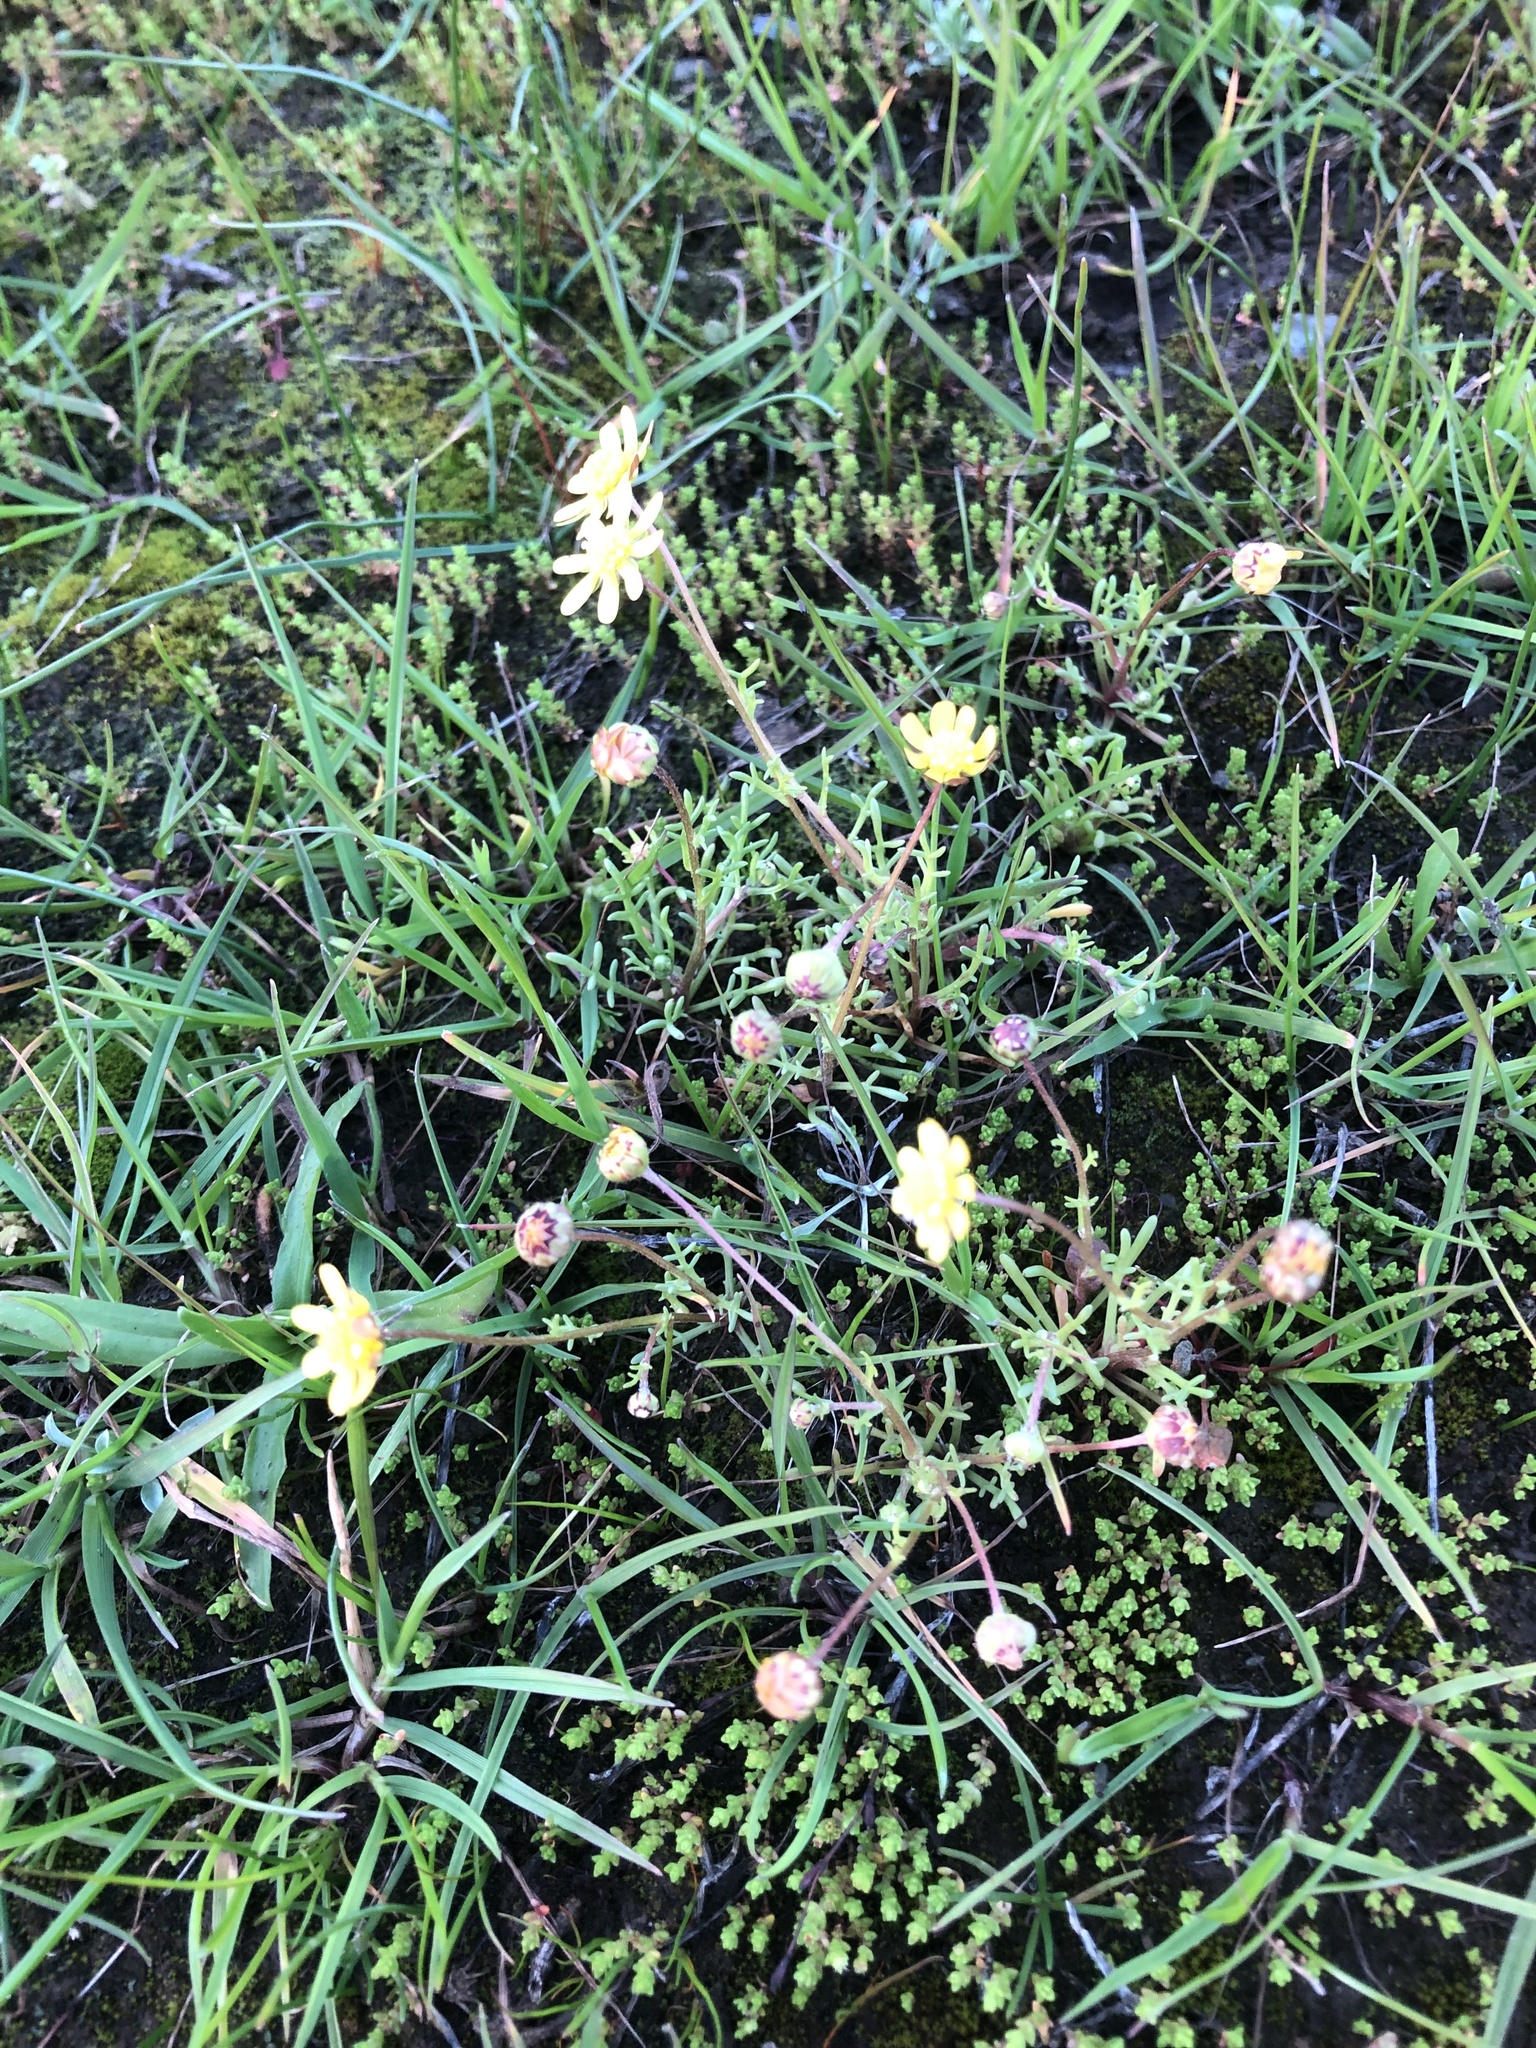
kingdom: Plantae
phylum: Tracheophyta
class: Magnoliopsida
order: Asterales
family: Asteraceae
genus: Blennosperma
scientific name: Blennosperma nanum
